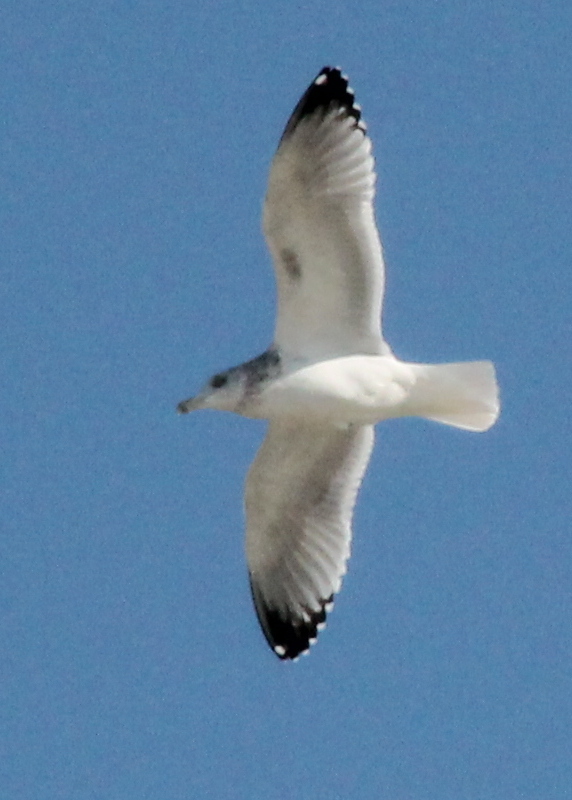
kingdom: Animalia
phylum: Chordata
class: Aves
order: Charadriiformes
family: Laridae
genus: Larus
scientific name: Larus delawarensis
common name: Ring-billed gull
